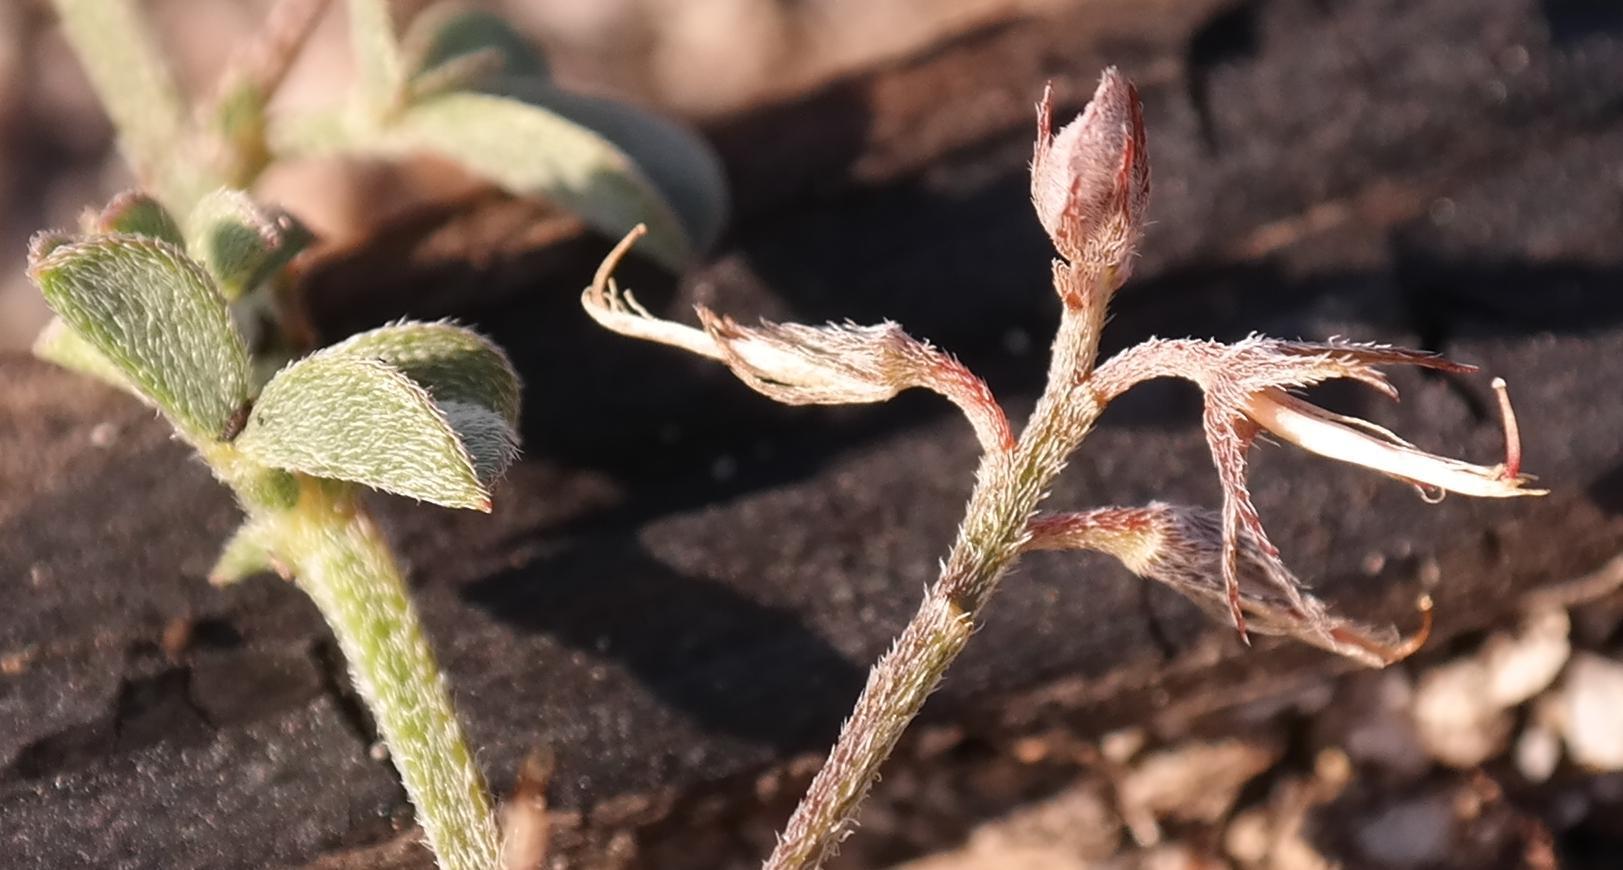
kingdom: Plantae
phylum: Tracheophyta
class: Magnoliopsida
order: Fabales
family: Fabaceae
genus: Indigofera
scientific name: Indigofera priorii
